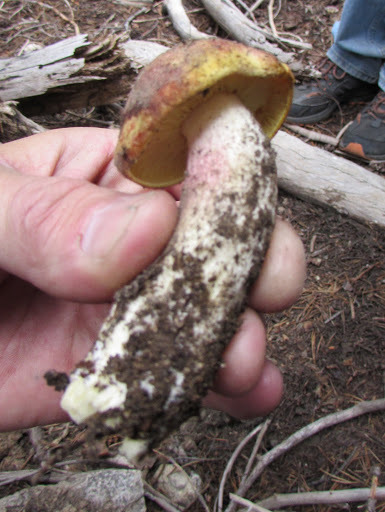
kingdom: Fungi
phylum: Basidiomycota
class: Agaricomycetes
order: Agaricales
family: Tricholomataceae
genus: Tricholomopsis
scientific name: Tricholomopsis rutilans
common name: Plums and custard
